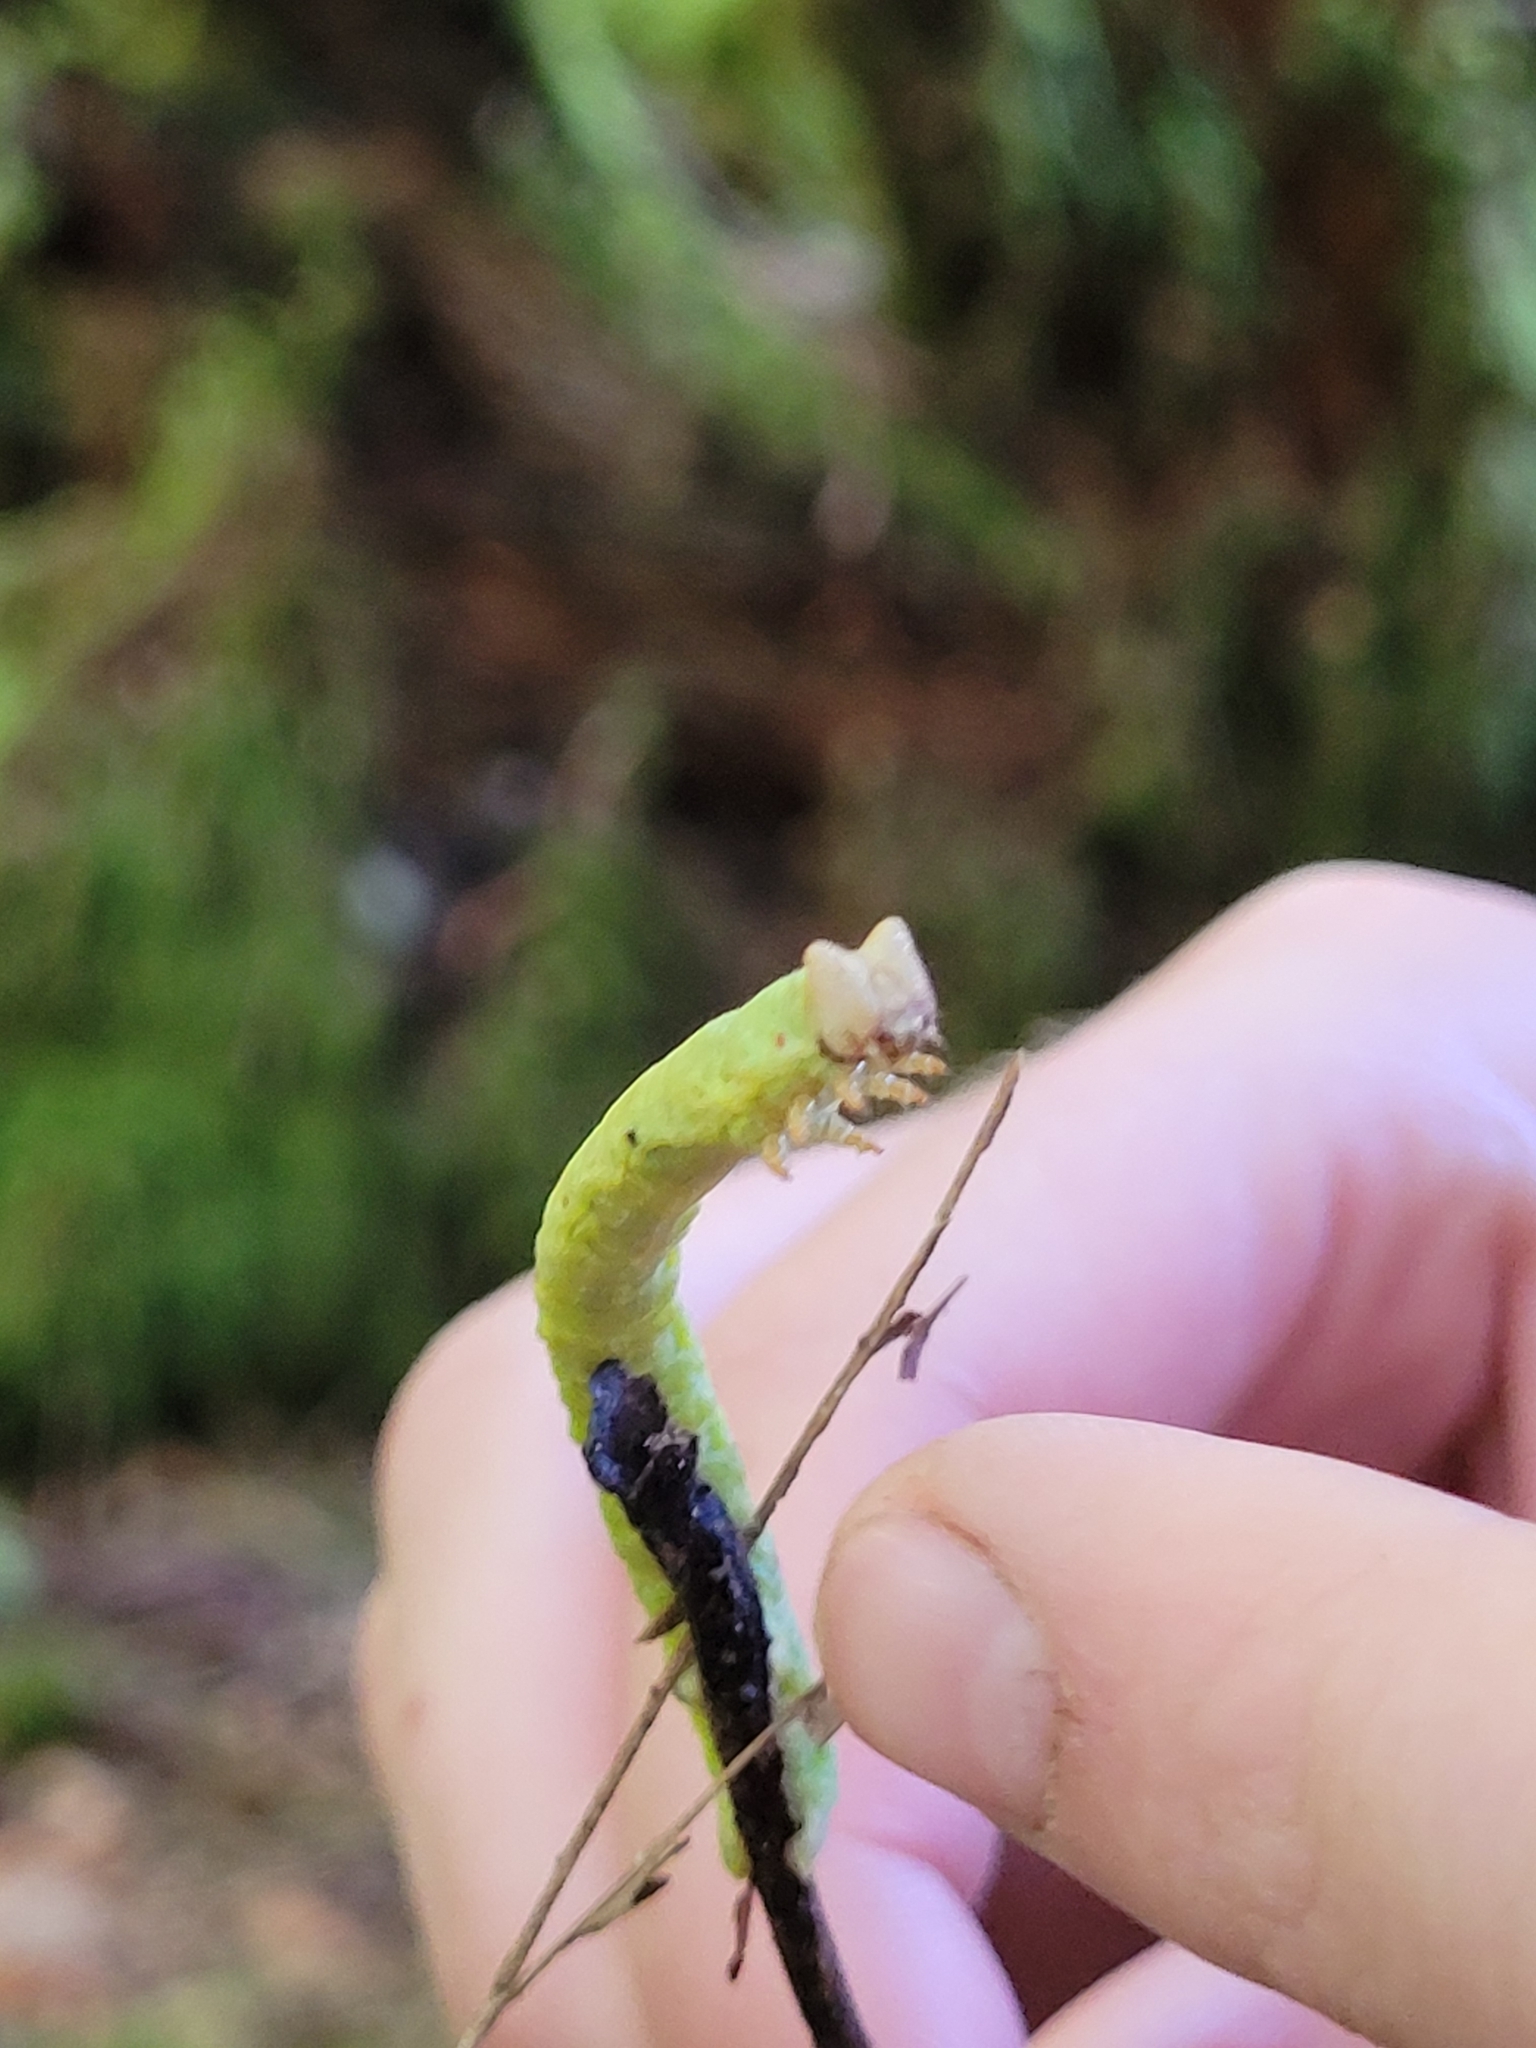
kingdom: Animalia
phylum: Arthropoda
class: Insecta
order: Lepidoptera
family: Geometridae
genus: Biston
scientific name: Biston betularia
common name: Peppered moth
